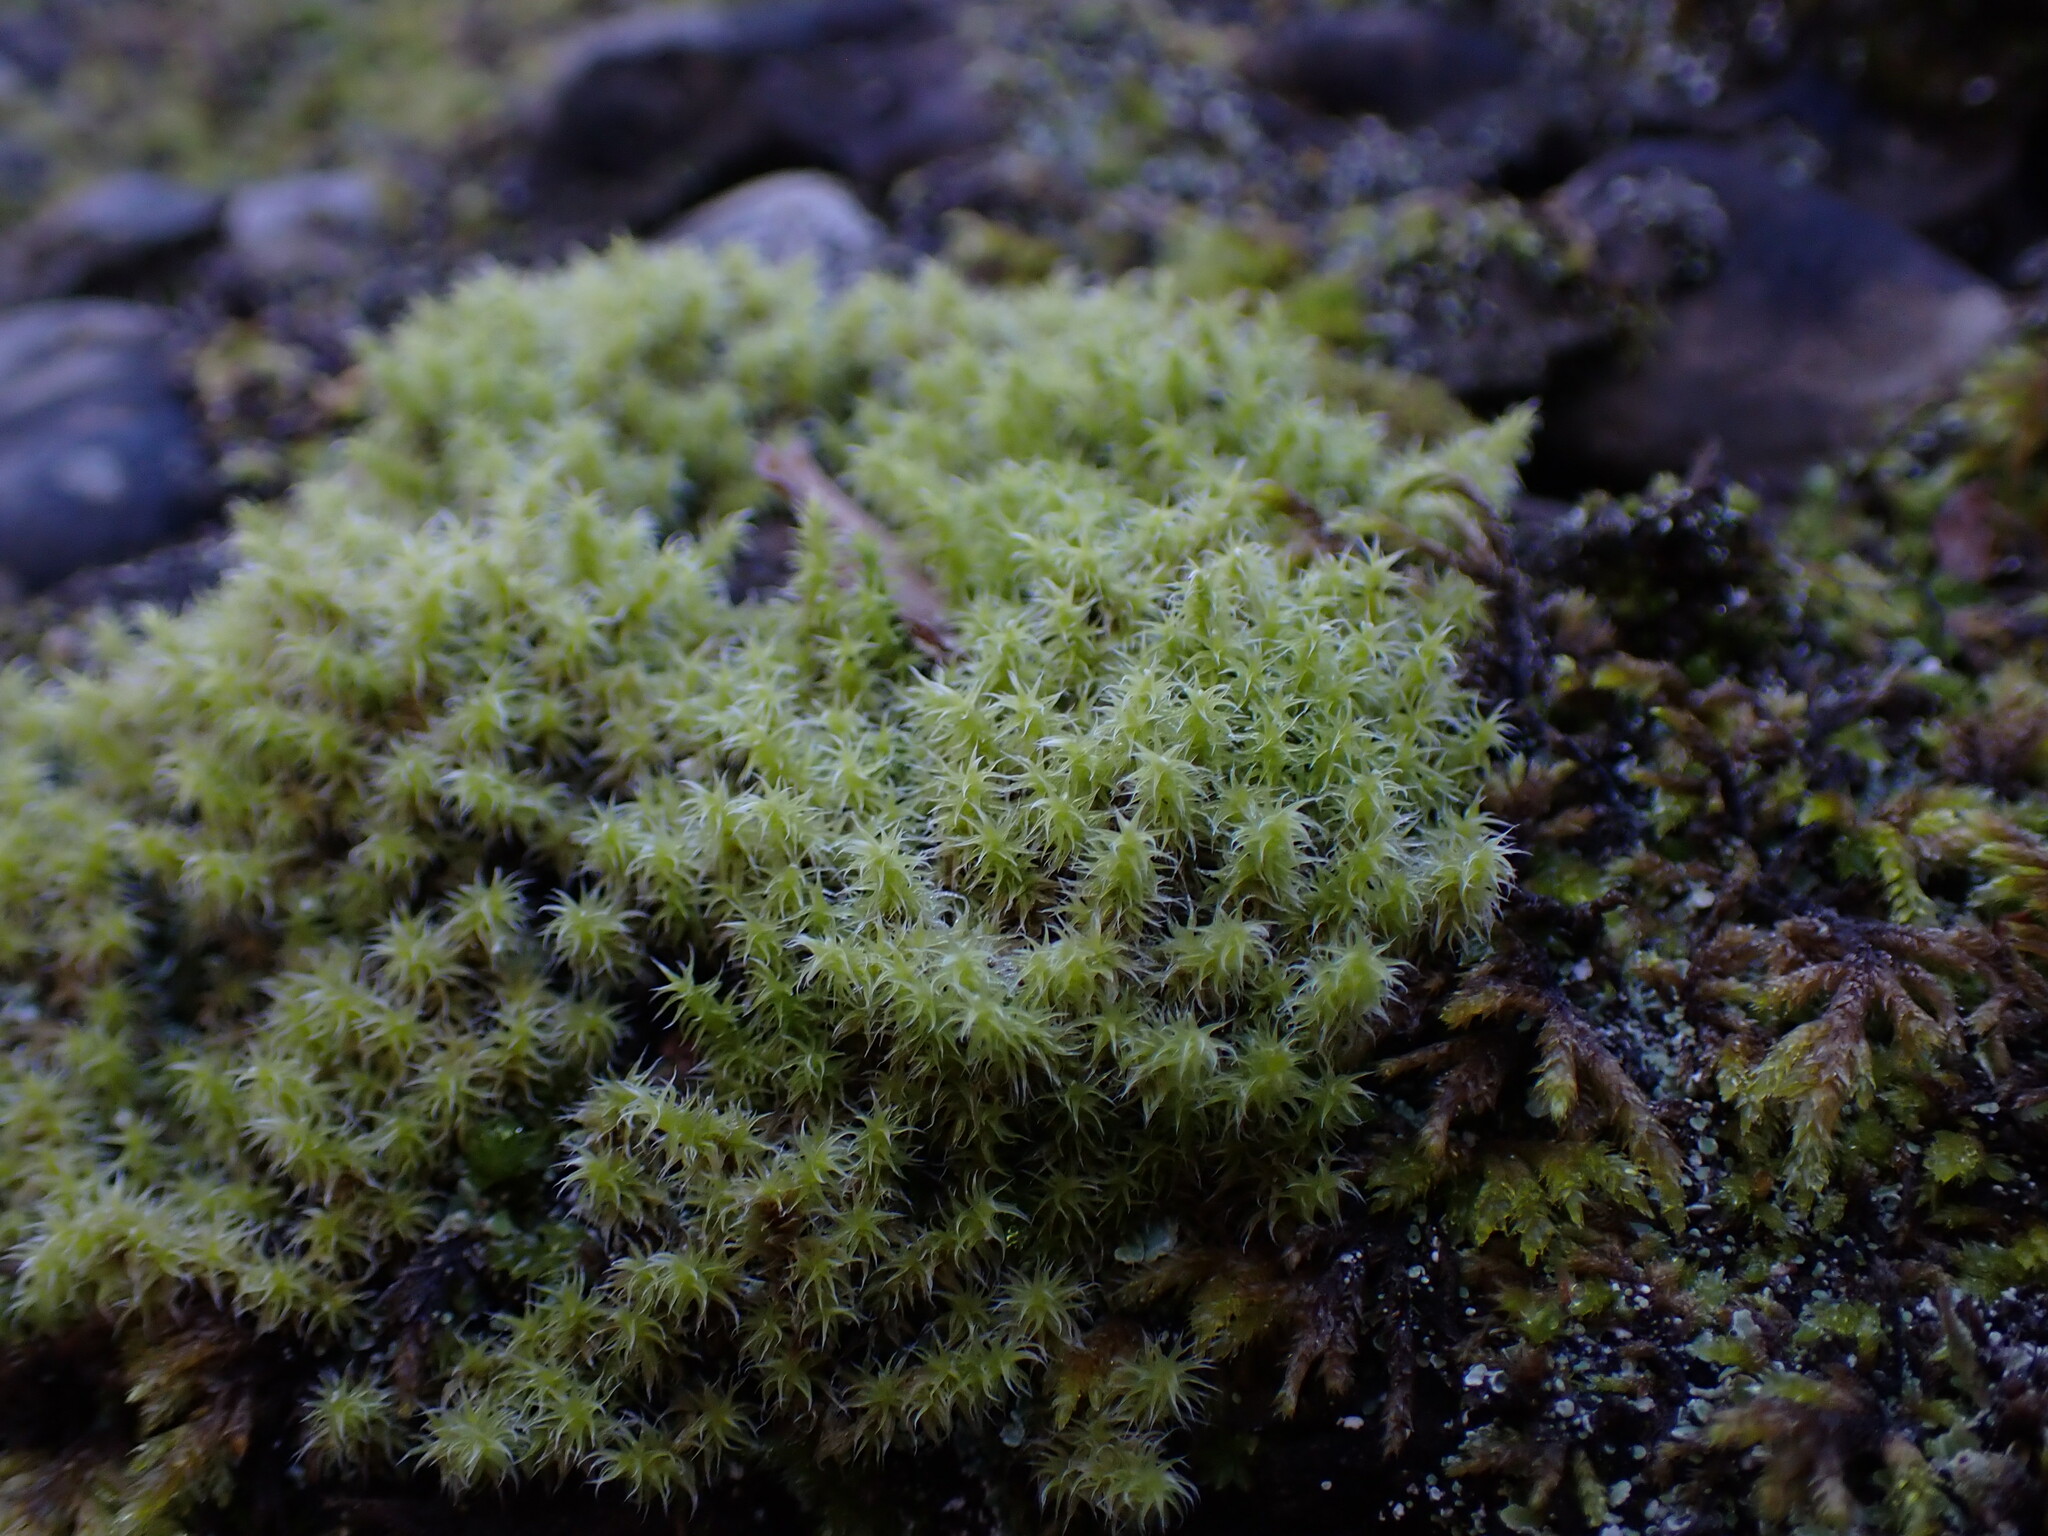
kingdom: Plantae
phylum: Bryophyta
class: Bryopsida
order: Grimmiales
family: Grimmiaceae
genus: Niphotrichum
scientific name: Niphotrichum elongatum
